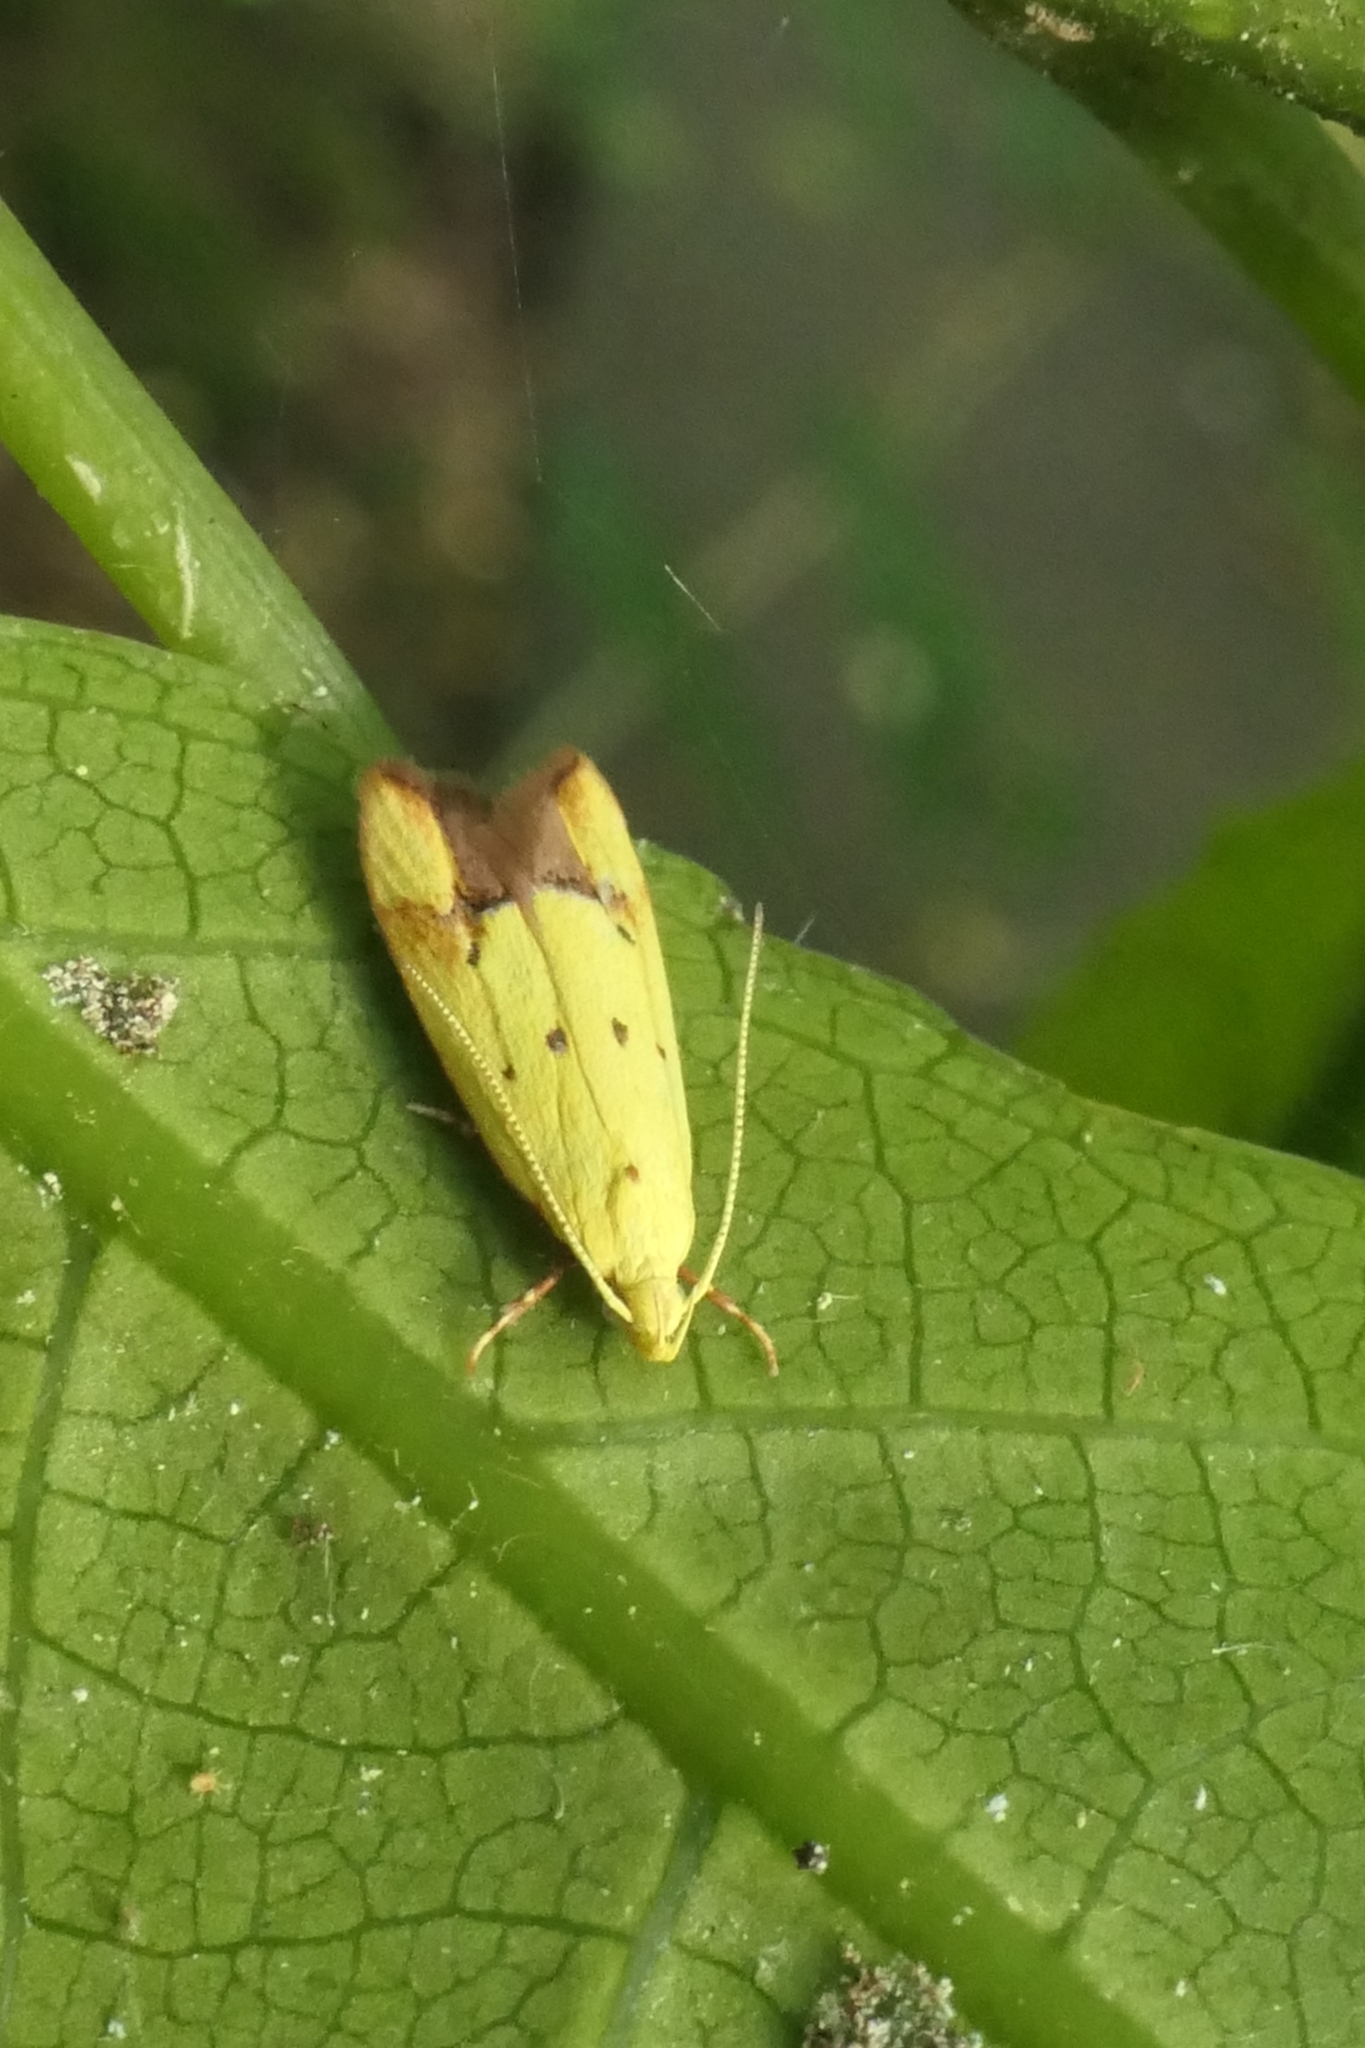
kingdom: Animalia
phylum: Arthropoda
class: Insecta
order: Lepidoptera
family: Oecophoridae
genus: Gymnobathra
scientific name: Gymnobathra flavidella
